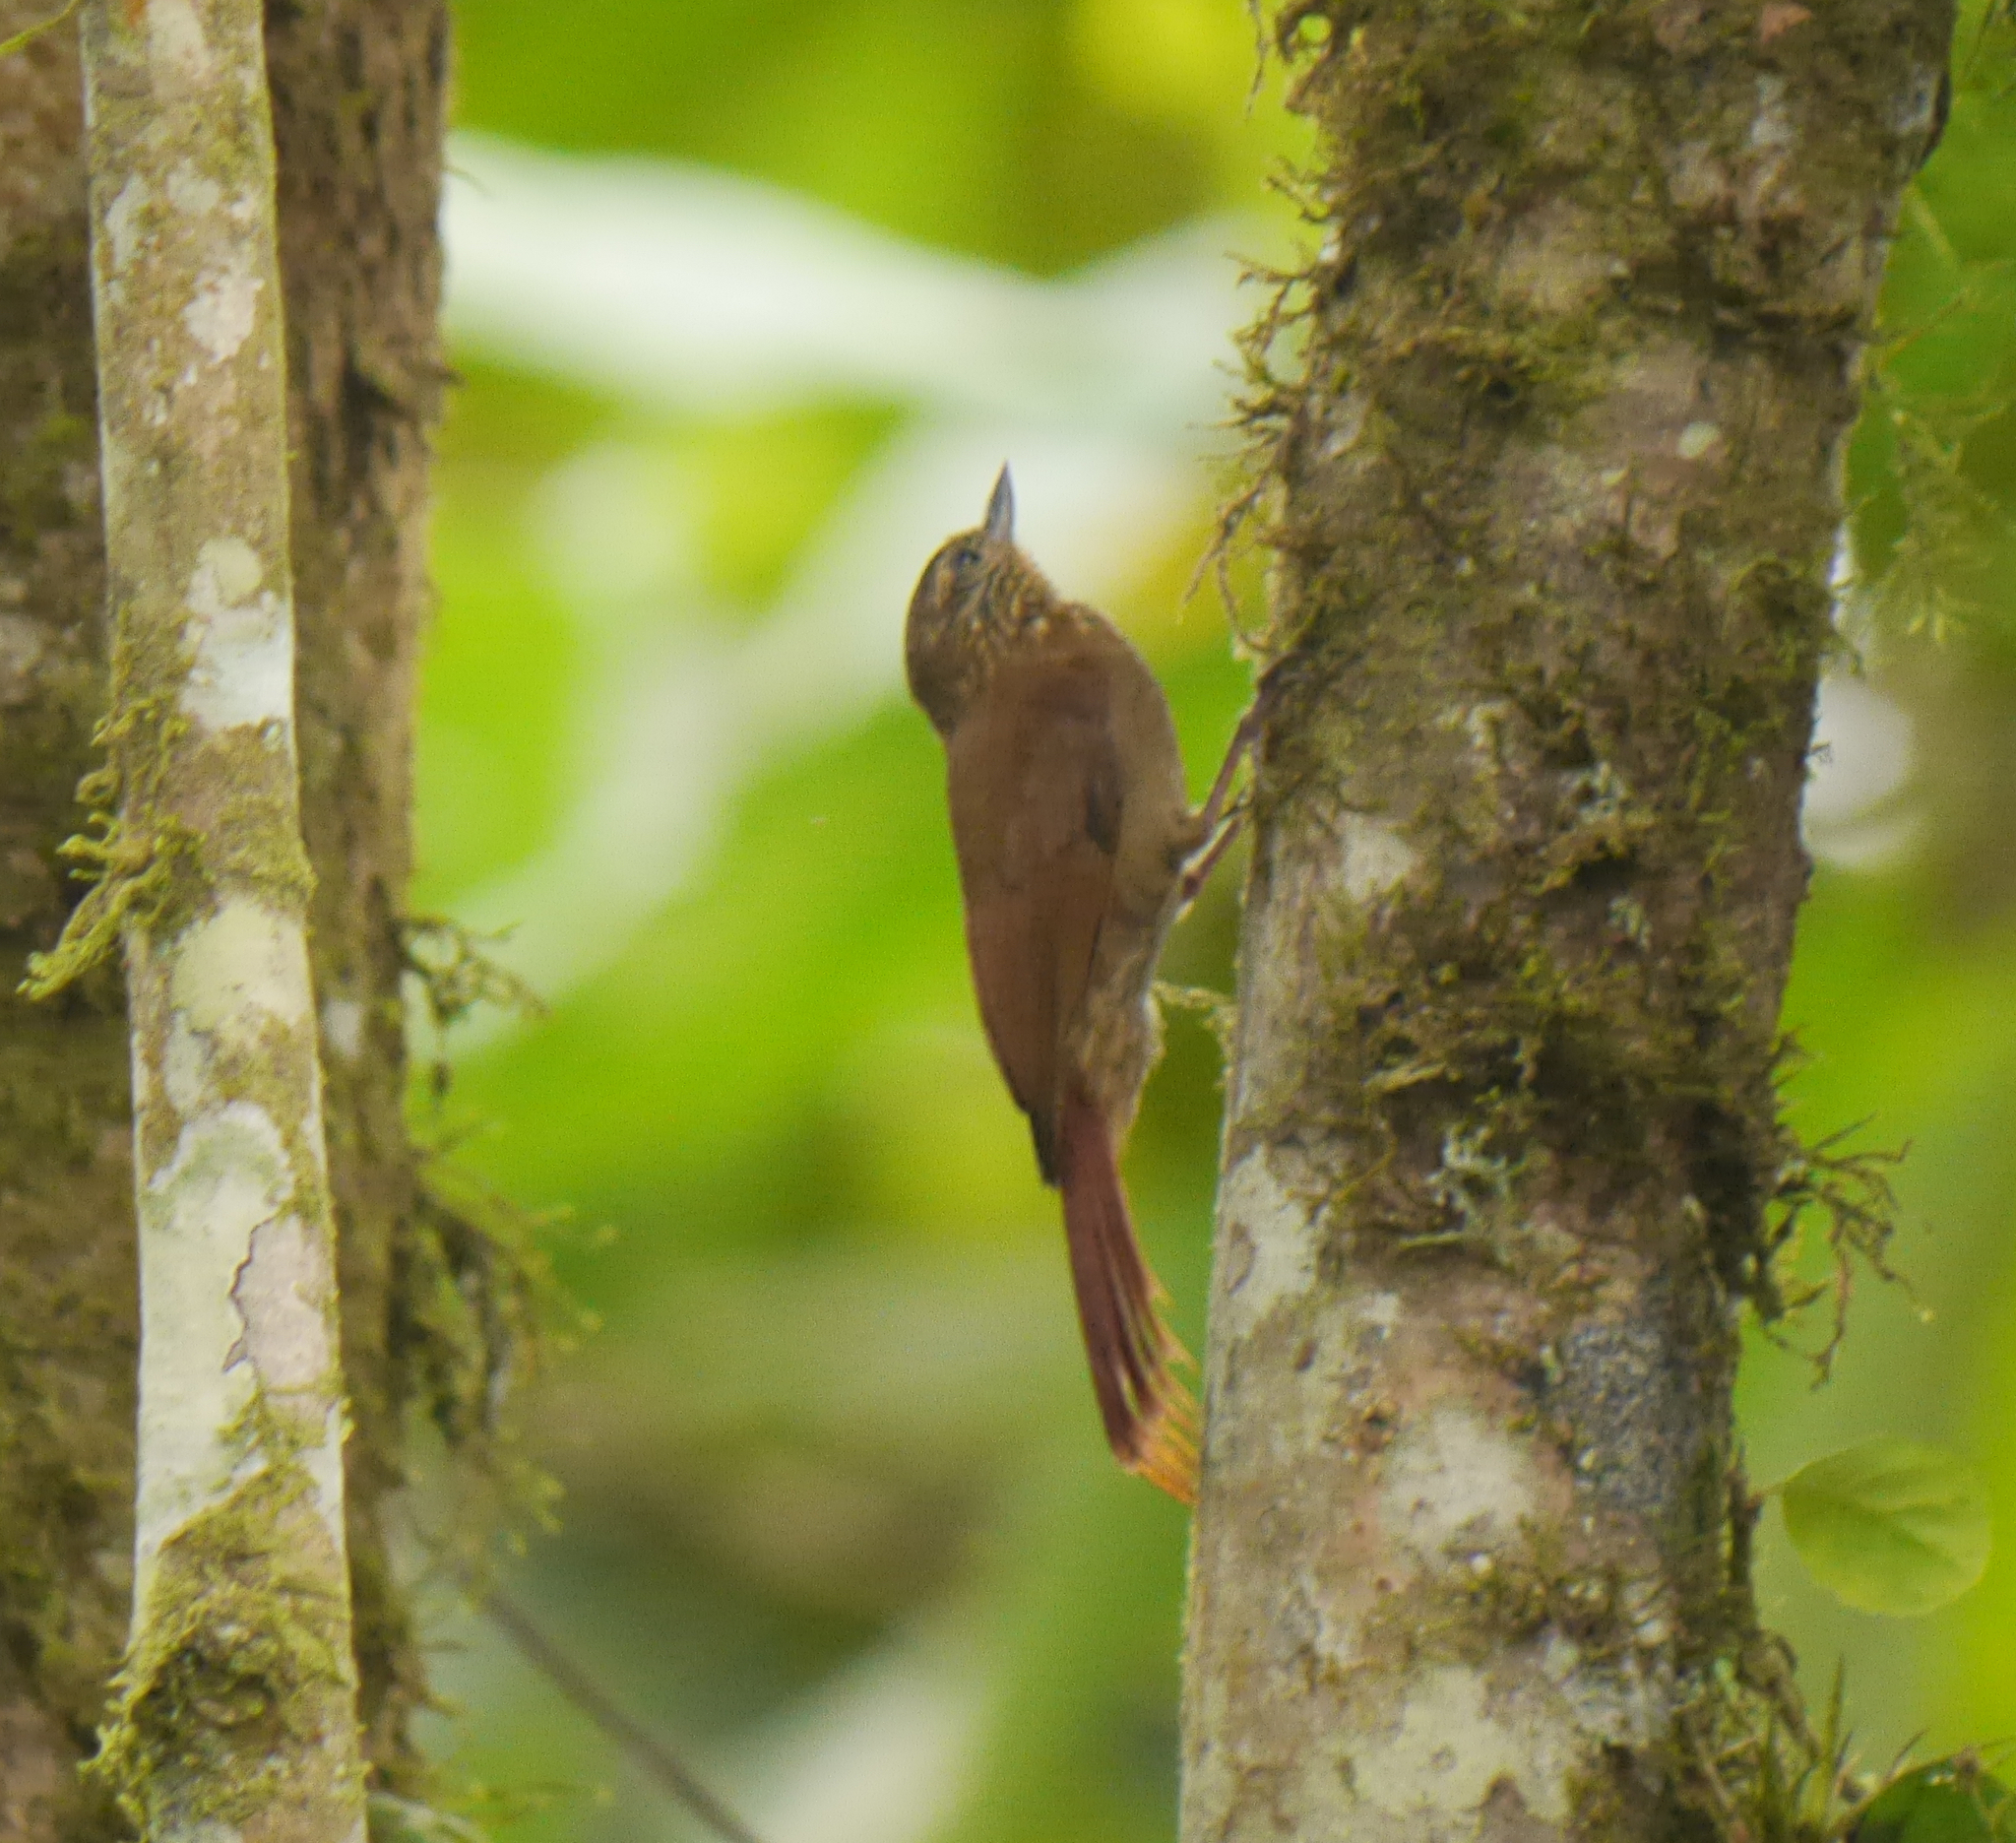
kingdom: Animalia
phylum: Chordata
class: Aves
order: Passeriformes
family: Furnariidae
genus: Glyphorynchus
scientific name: Glyphorynchus spirurus
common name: Wedge-billed woodcreeper
